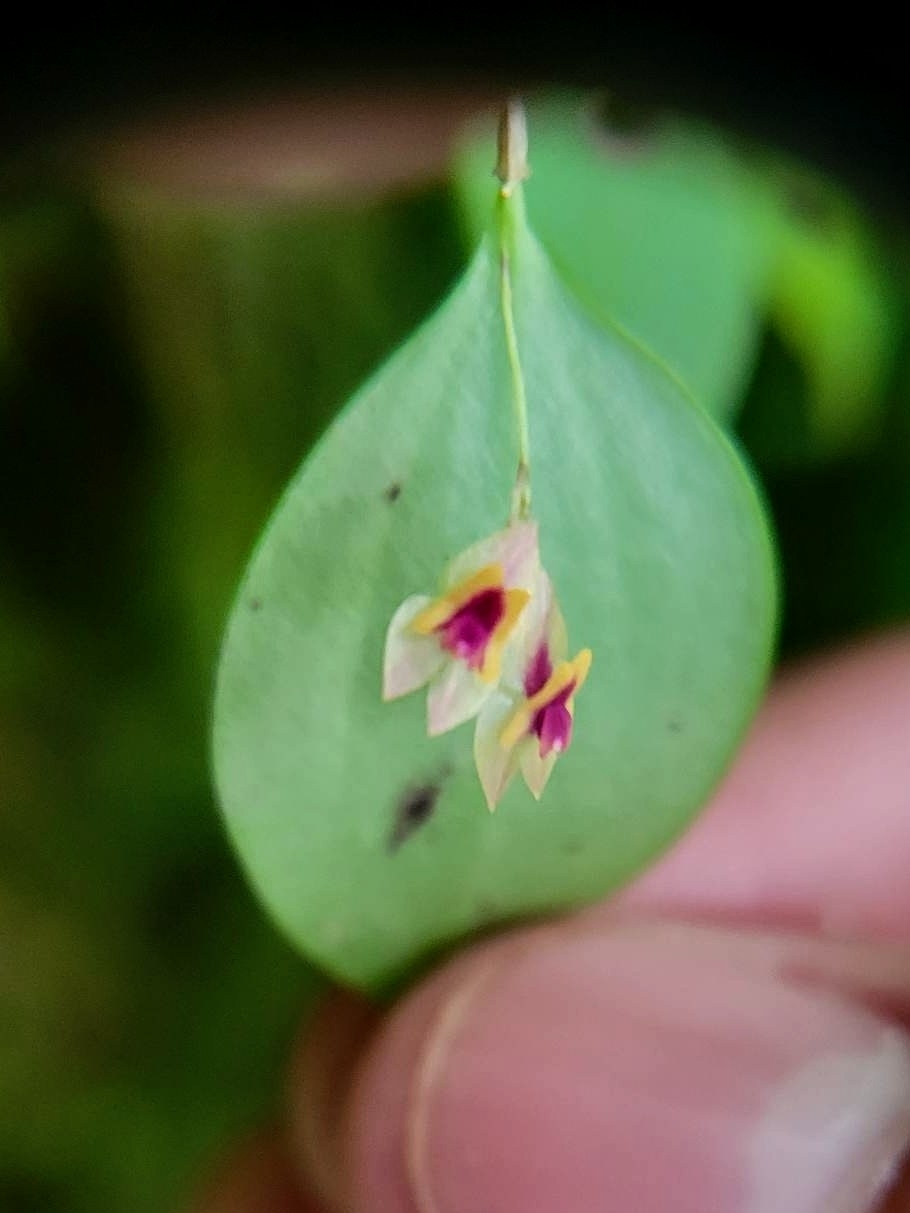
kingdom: Plantae
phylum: Tracheophyta
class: Liliopsida
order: Asparagales
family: Orchidaceae
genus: Lepanthes
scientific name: Lepanthes woodburyana
